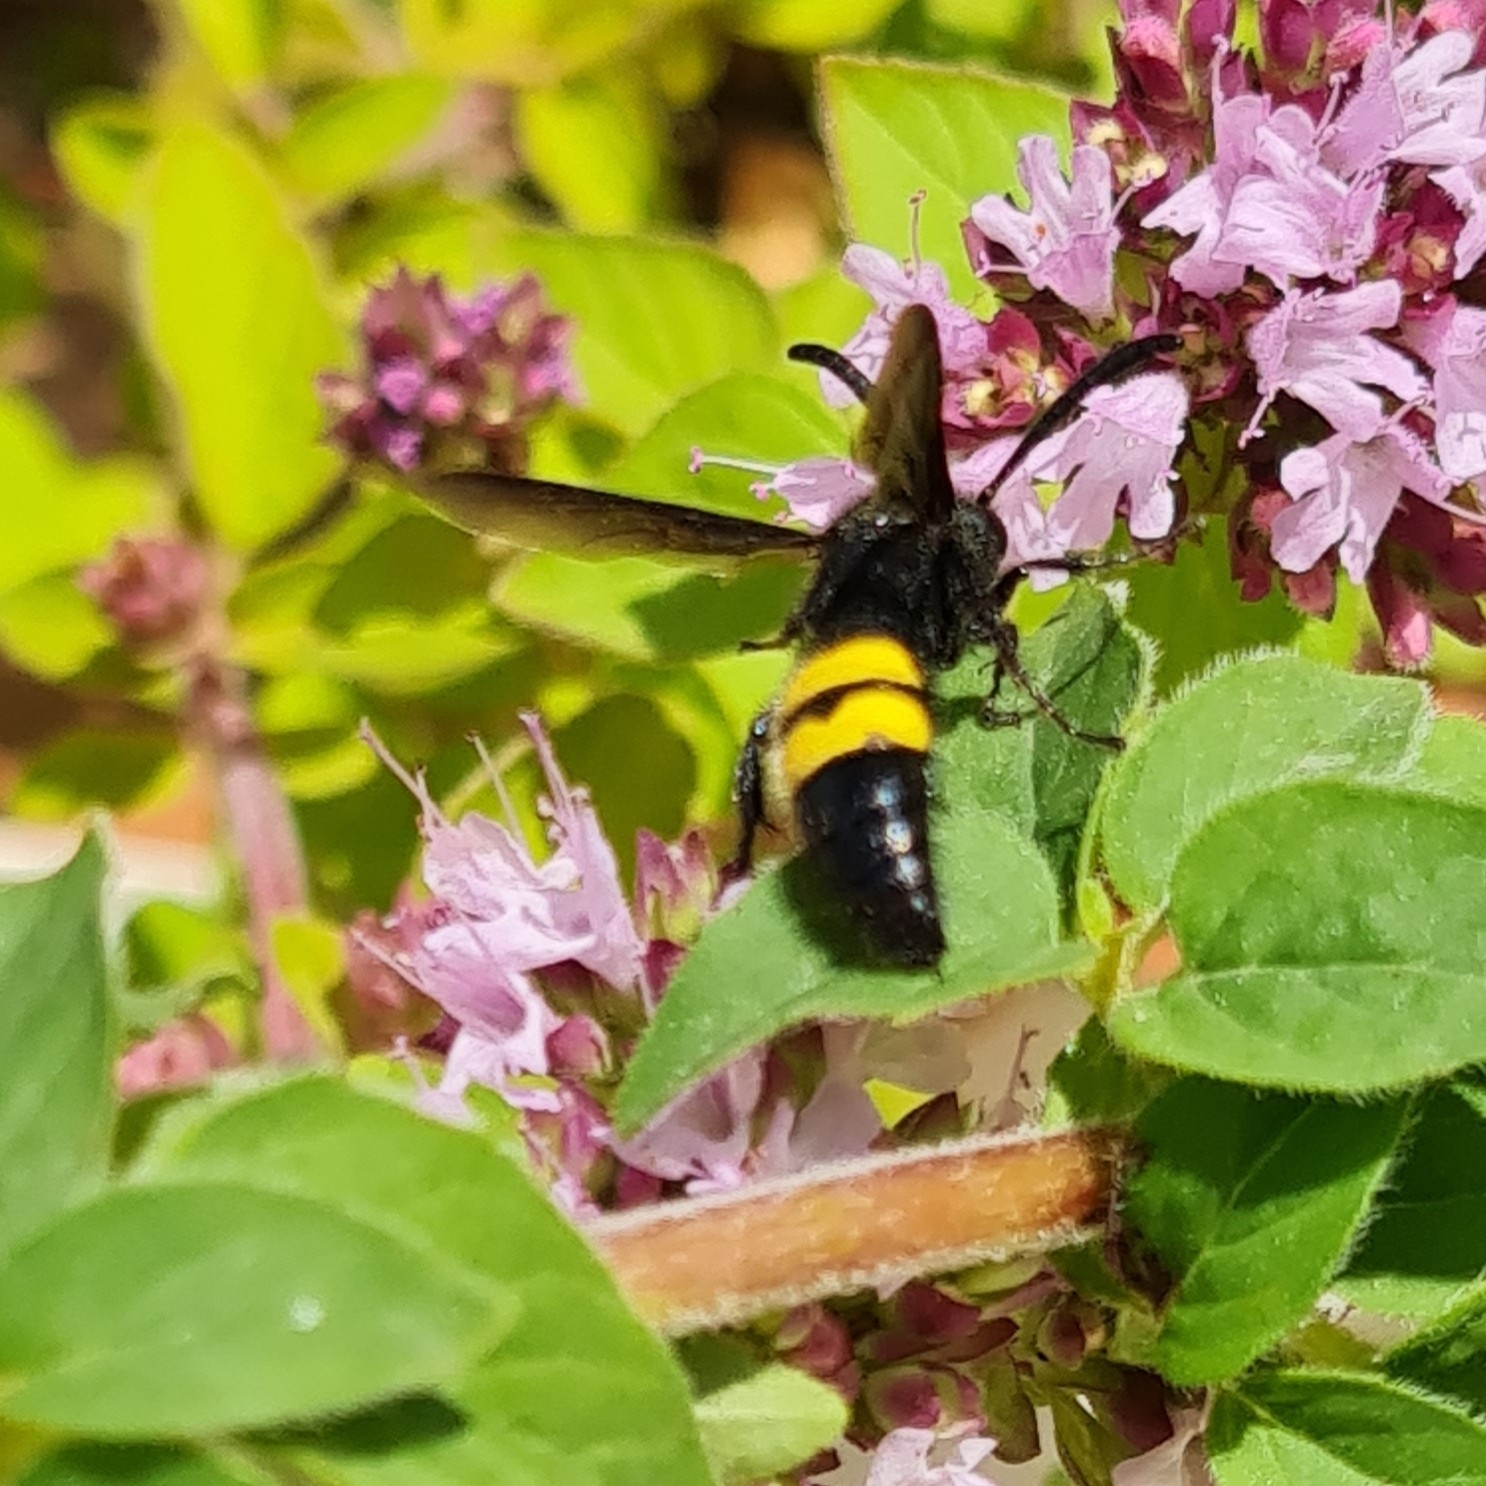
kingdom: Animalia
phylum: Arthropoda
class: Insecta
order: Hymenoptera
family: Scoliidae
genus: Scolia
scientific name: Scolia hirta
